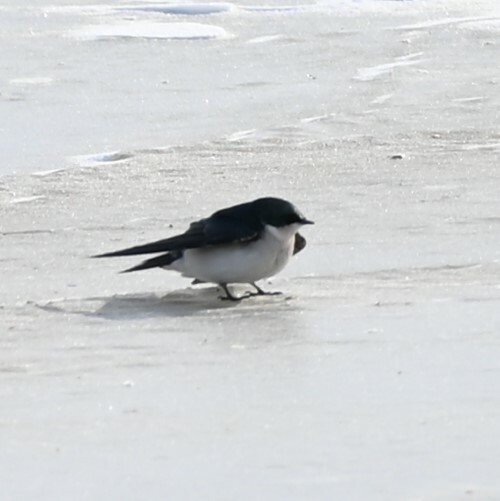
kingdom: Animalia
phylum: Chordata
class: Aves
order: Passeriformes
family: Hirundinidae
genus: Tachycineta
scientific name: Tachycineta bicolor
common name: Tree swallow
